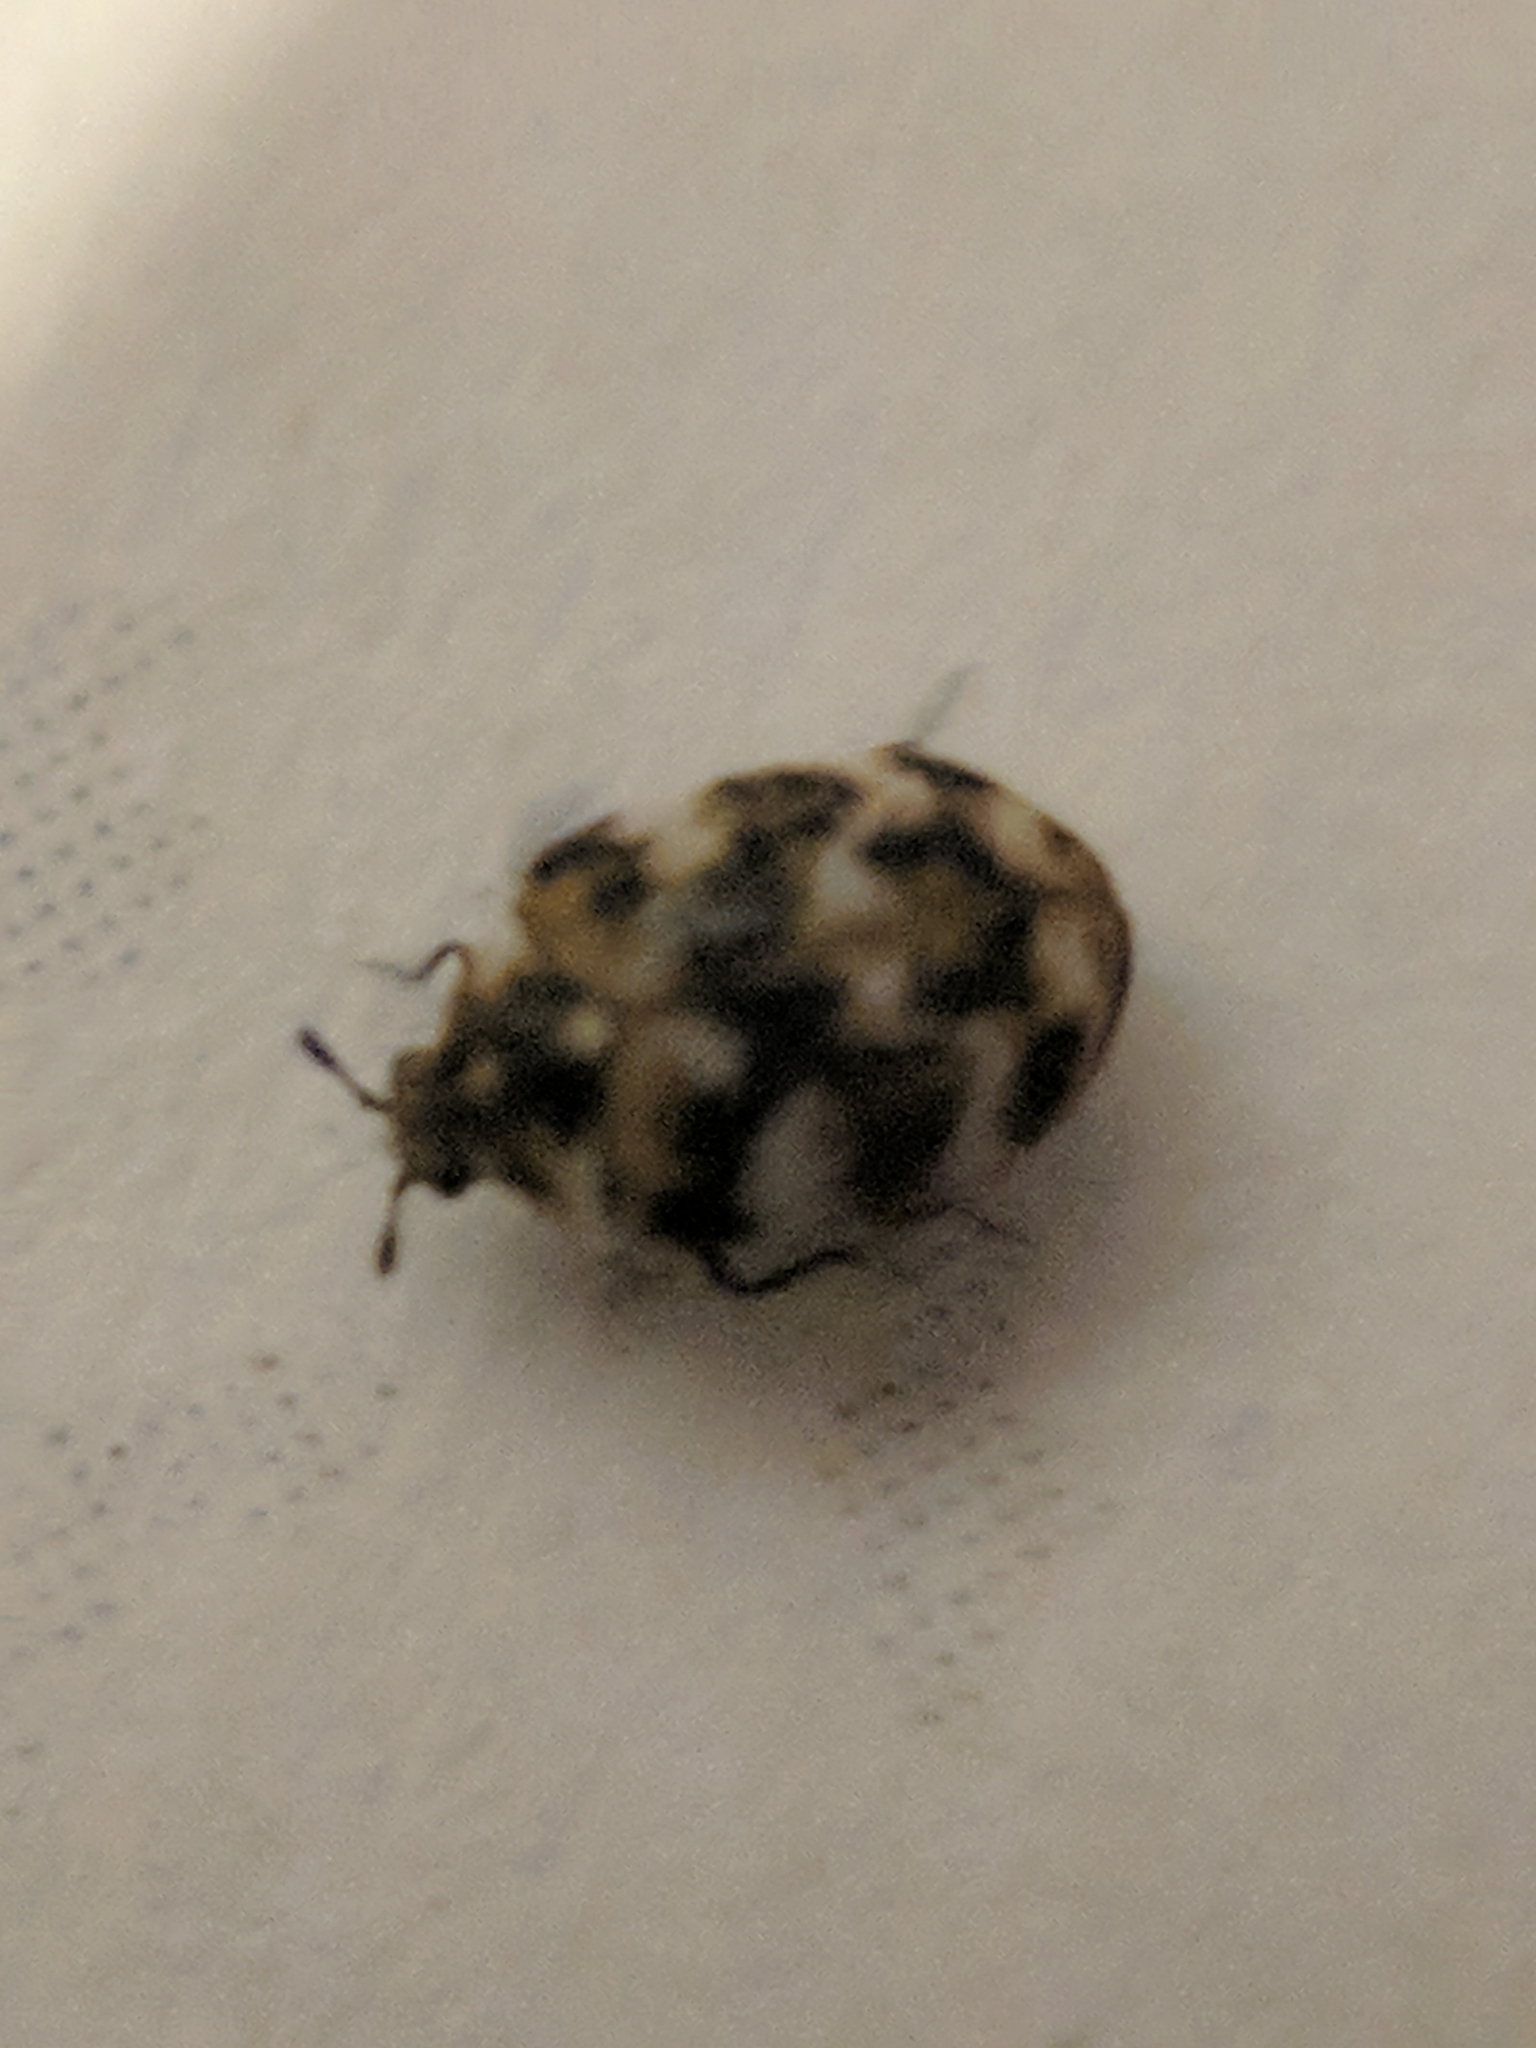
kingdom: Animalia
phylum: Arthropoda
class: Insecta
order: Coleoptera
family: Dermestidae
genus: Anthrenus
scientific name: Anthrenus verbasci
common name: Varied carpet beetle
